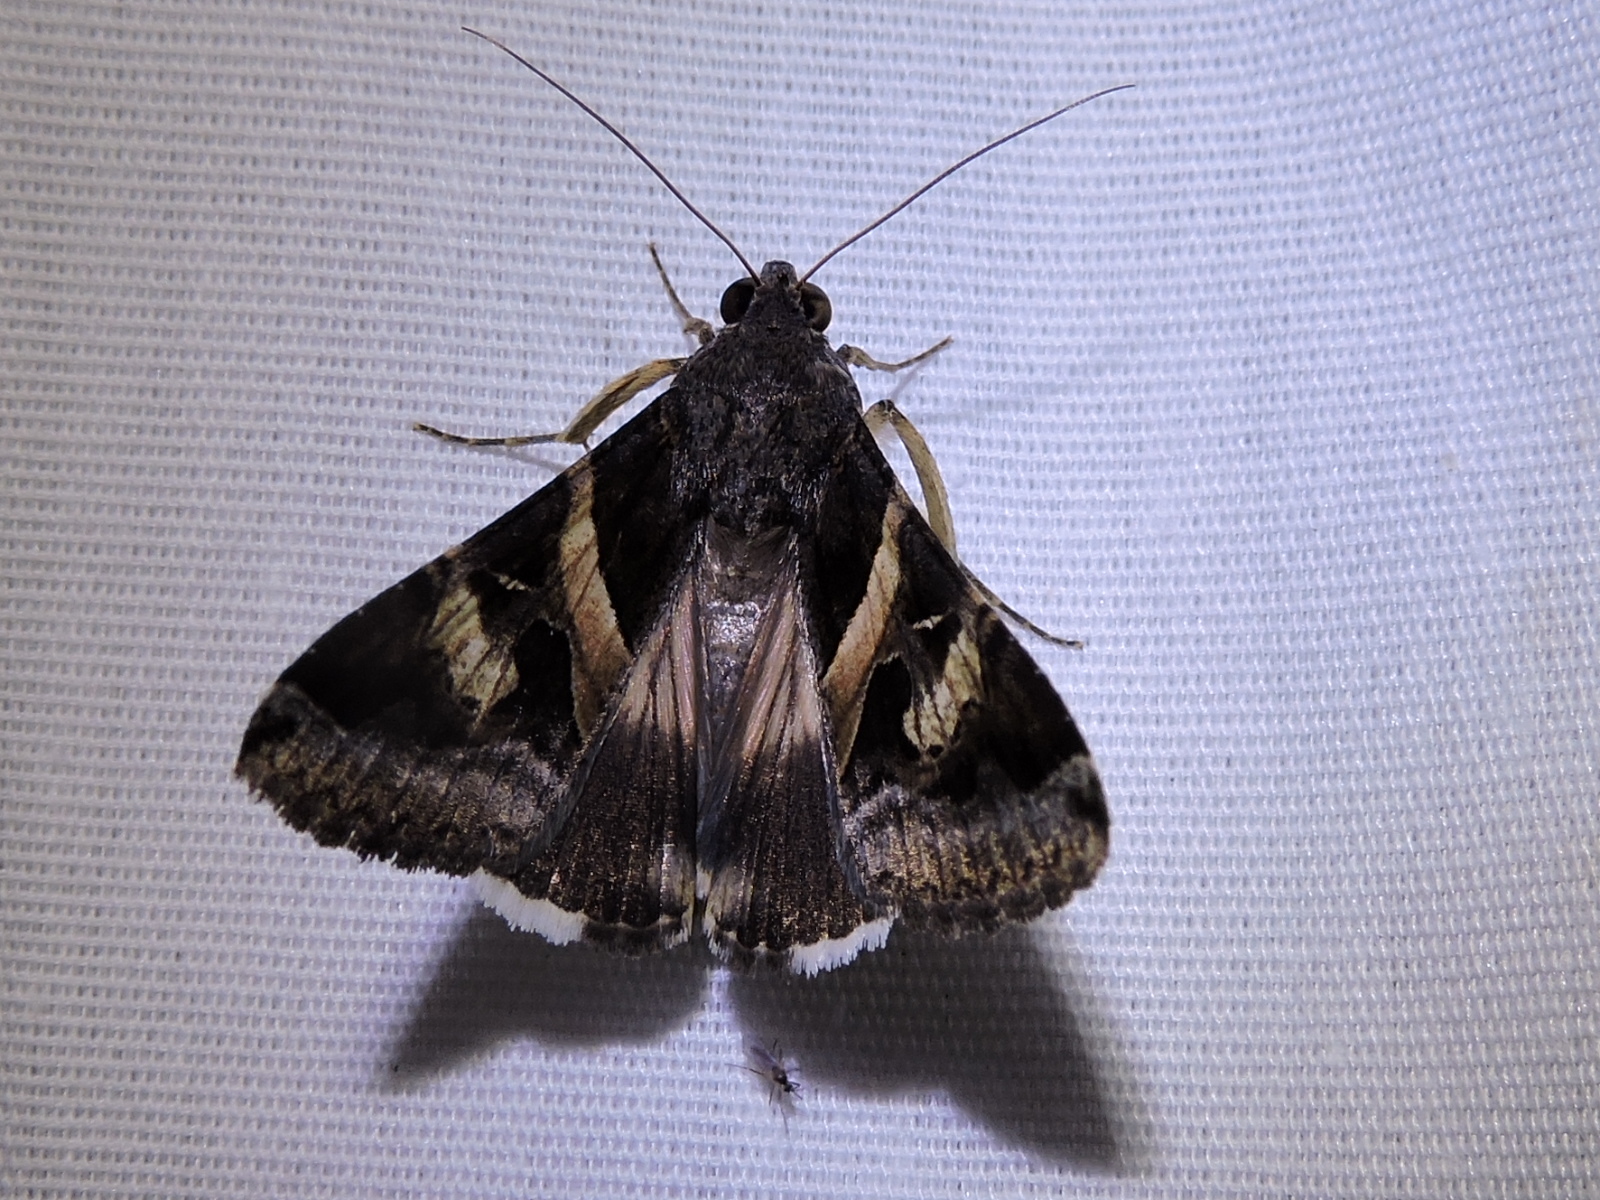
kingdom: Animalia
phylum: Arthropoda
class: Insecta
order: Lepidoptera
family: Erebidae
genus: Melipotis
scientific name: Melipotis indomita
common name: Moth
